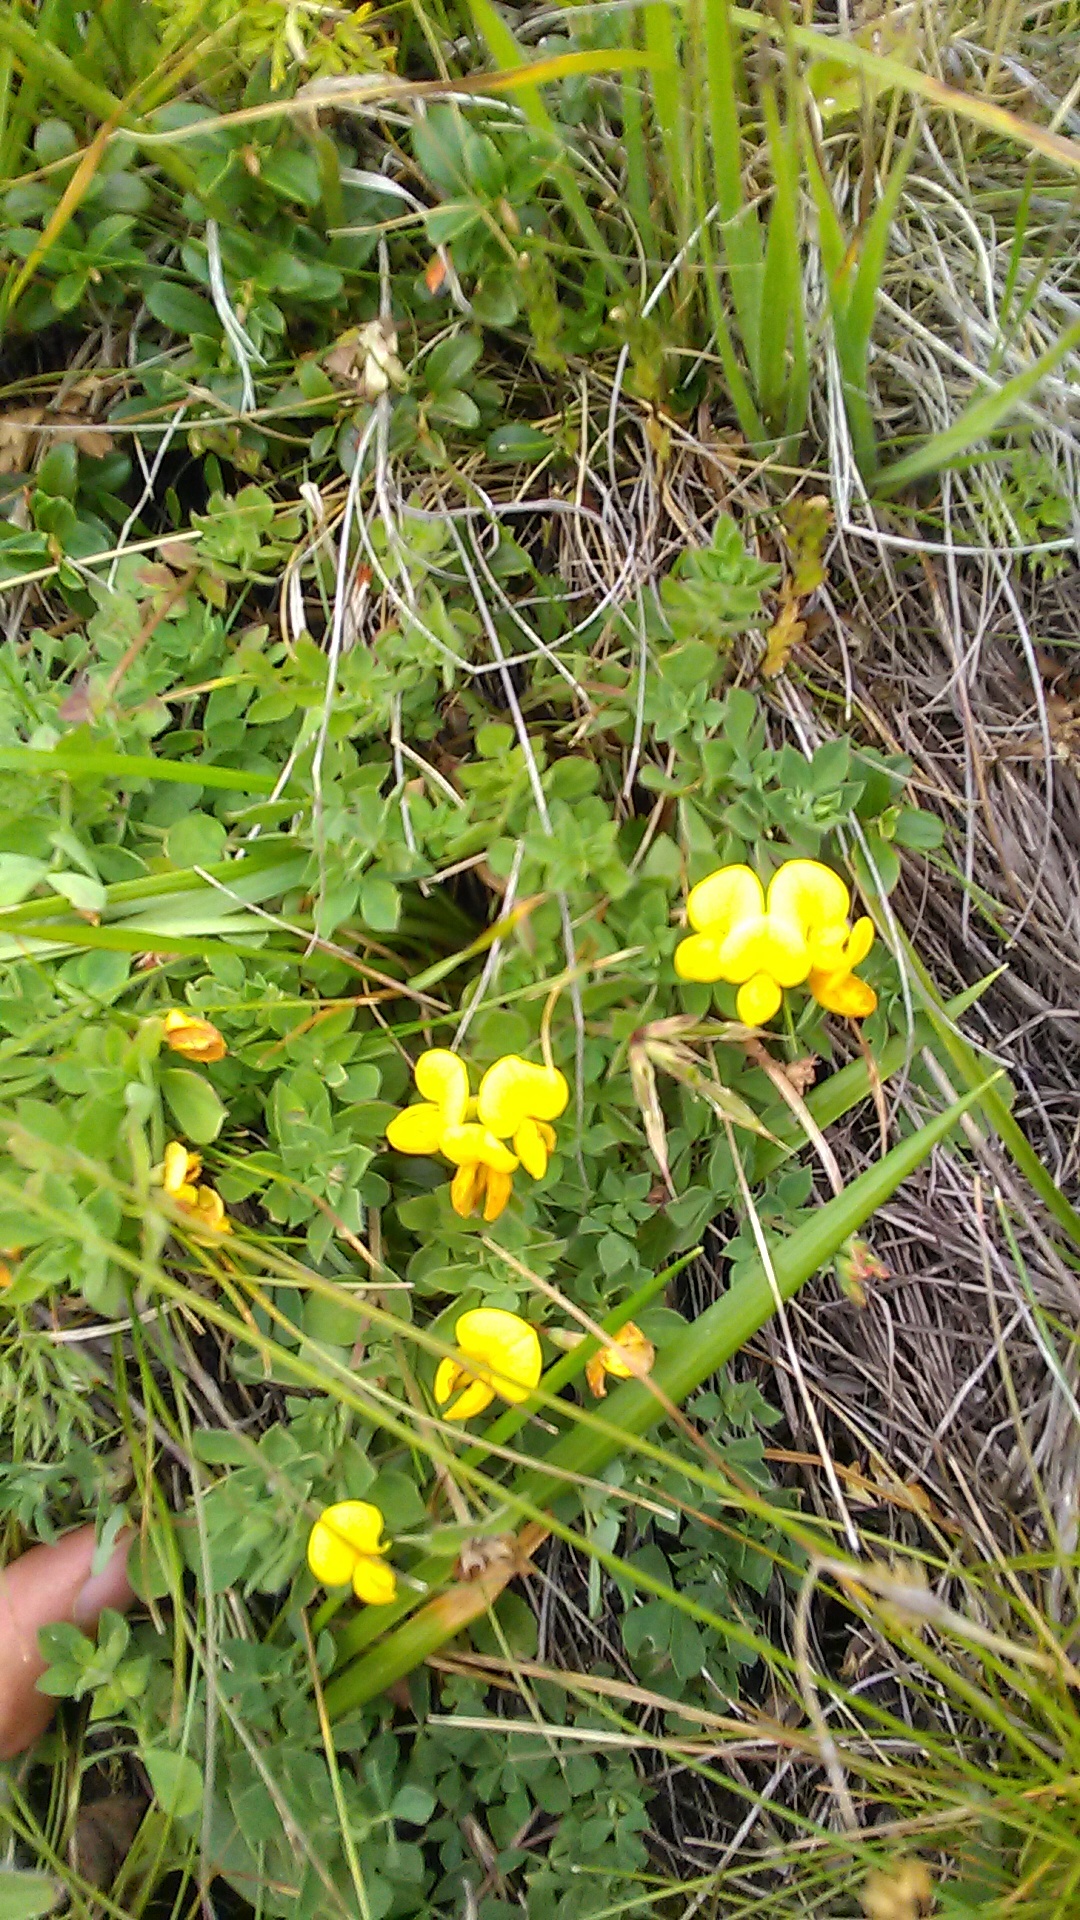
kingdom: Plantae
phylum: Tracheophyta
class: Magnoliopsida
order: Fabales
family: Fabaceae
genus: Lotus
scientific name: Lotus corniculatus
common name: Common bird's-foot-trefoil
